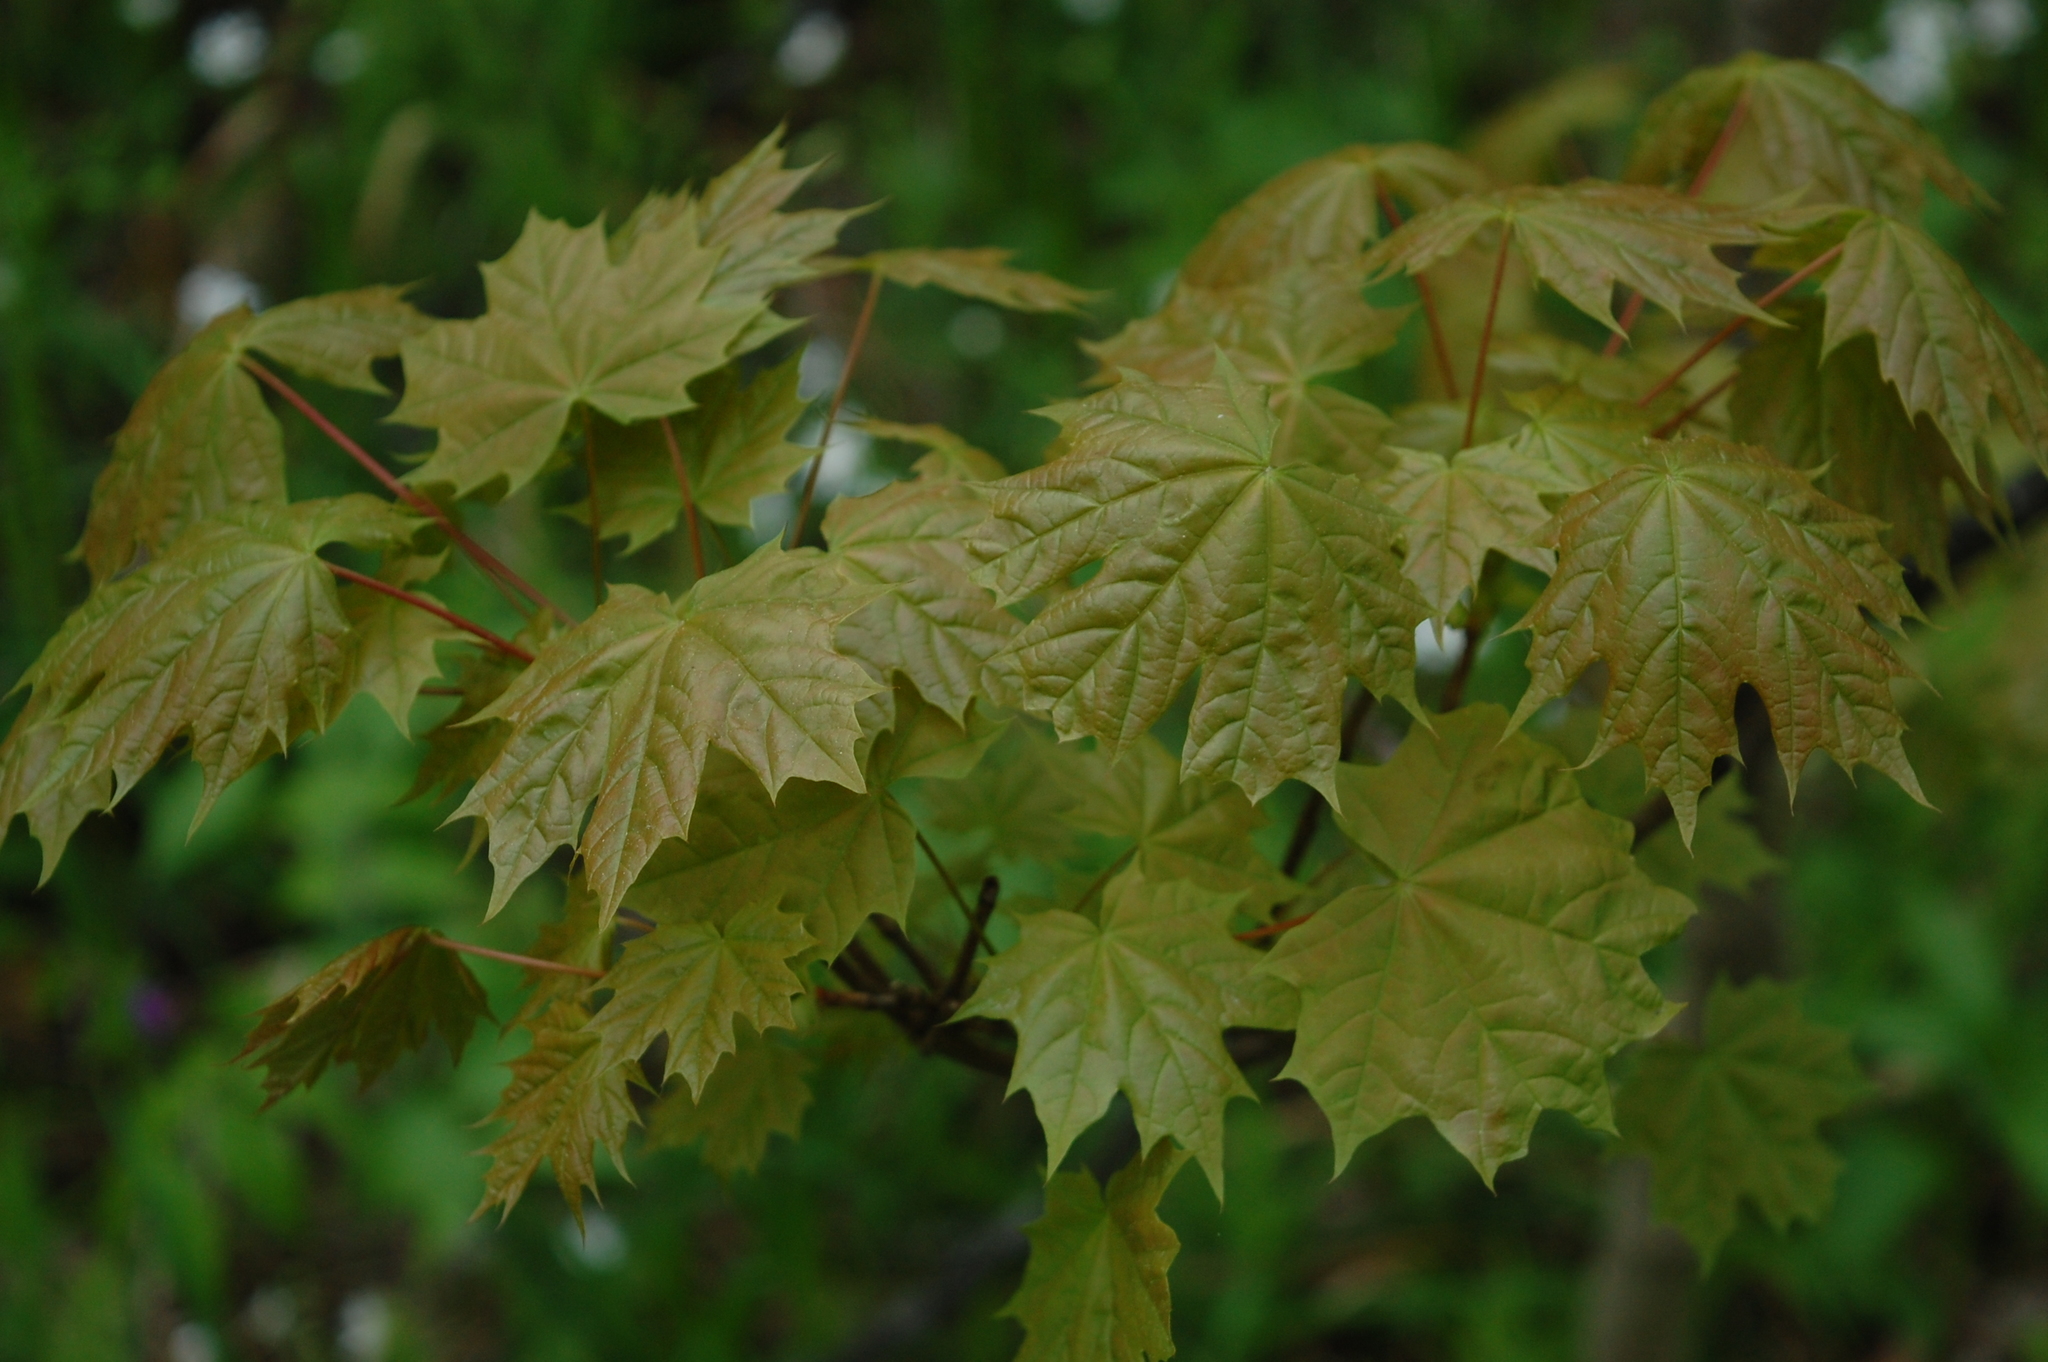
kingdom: Plantae
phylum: Tracheophyta
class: Magnoliopsida
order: Sapindales
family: Sapindaceae
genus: Acer
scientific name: Acer platanoides
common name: Norway maple
